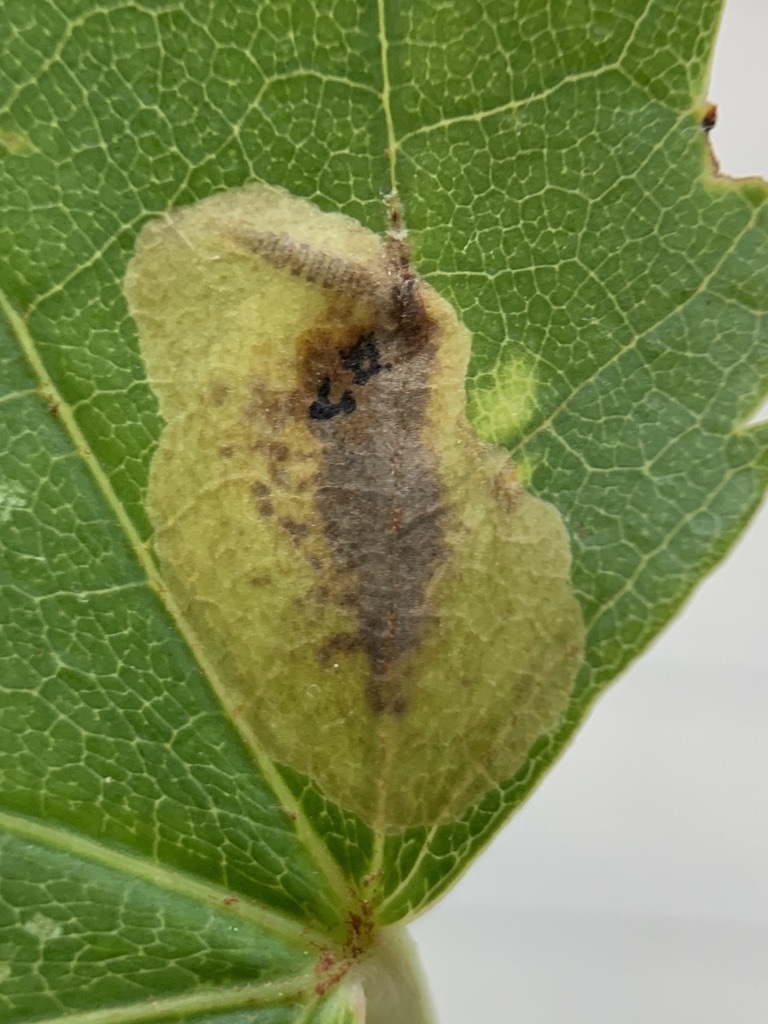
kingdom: Animalia
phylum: Arthropoda
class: Insecta
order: Lepidoptera
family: Gracillariidae
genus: Cameraria
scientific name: Cameraria saccharella
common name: Sugar maple blotchminer
